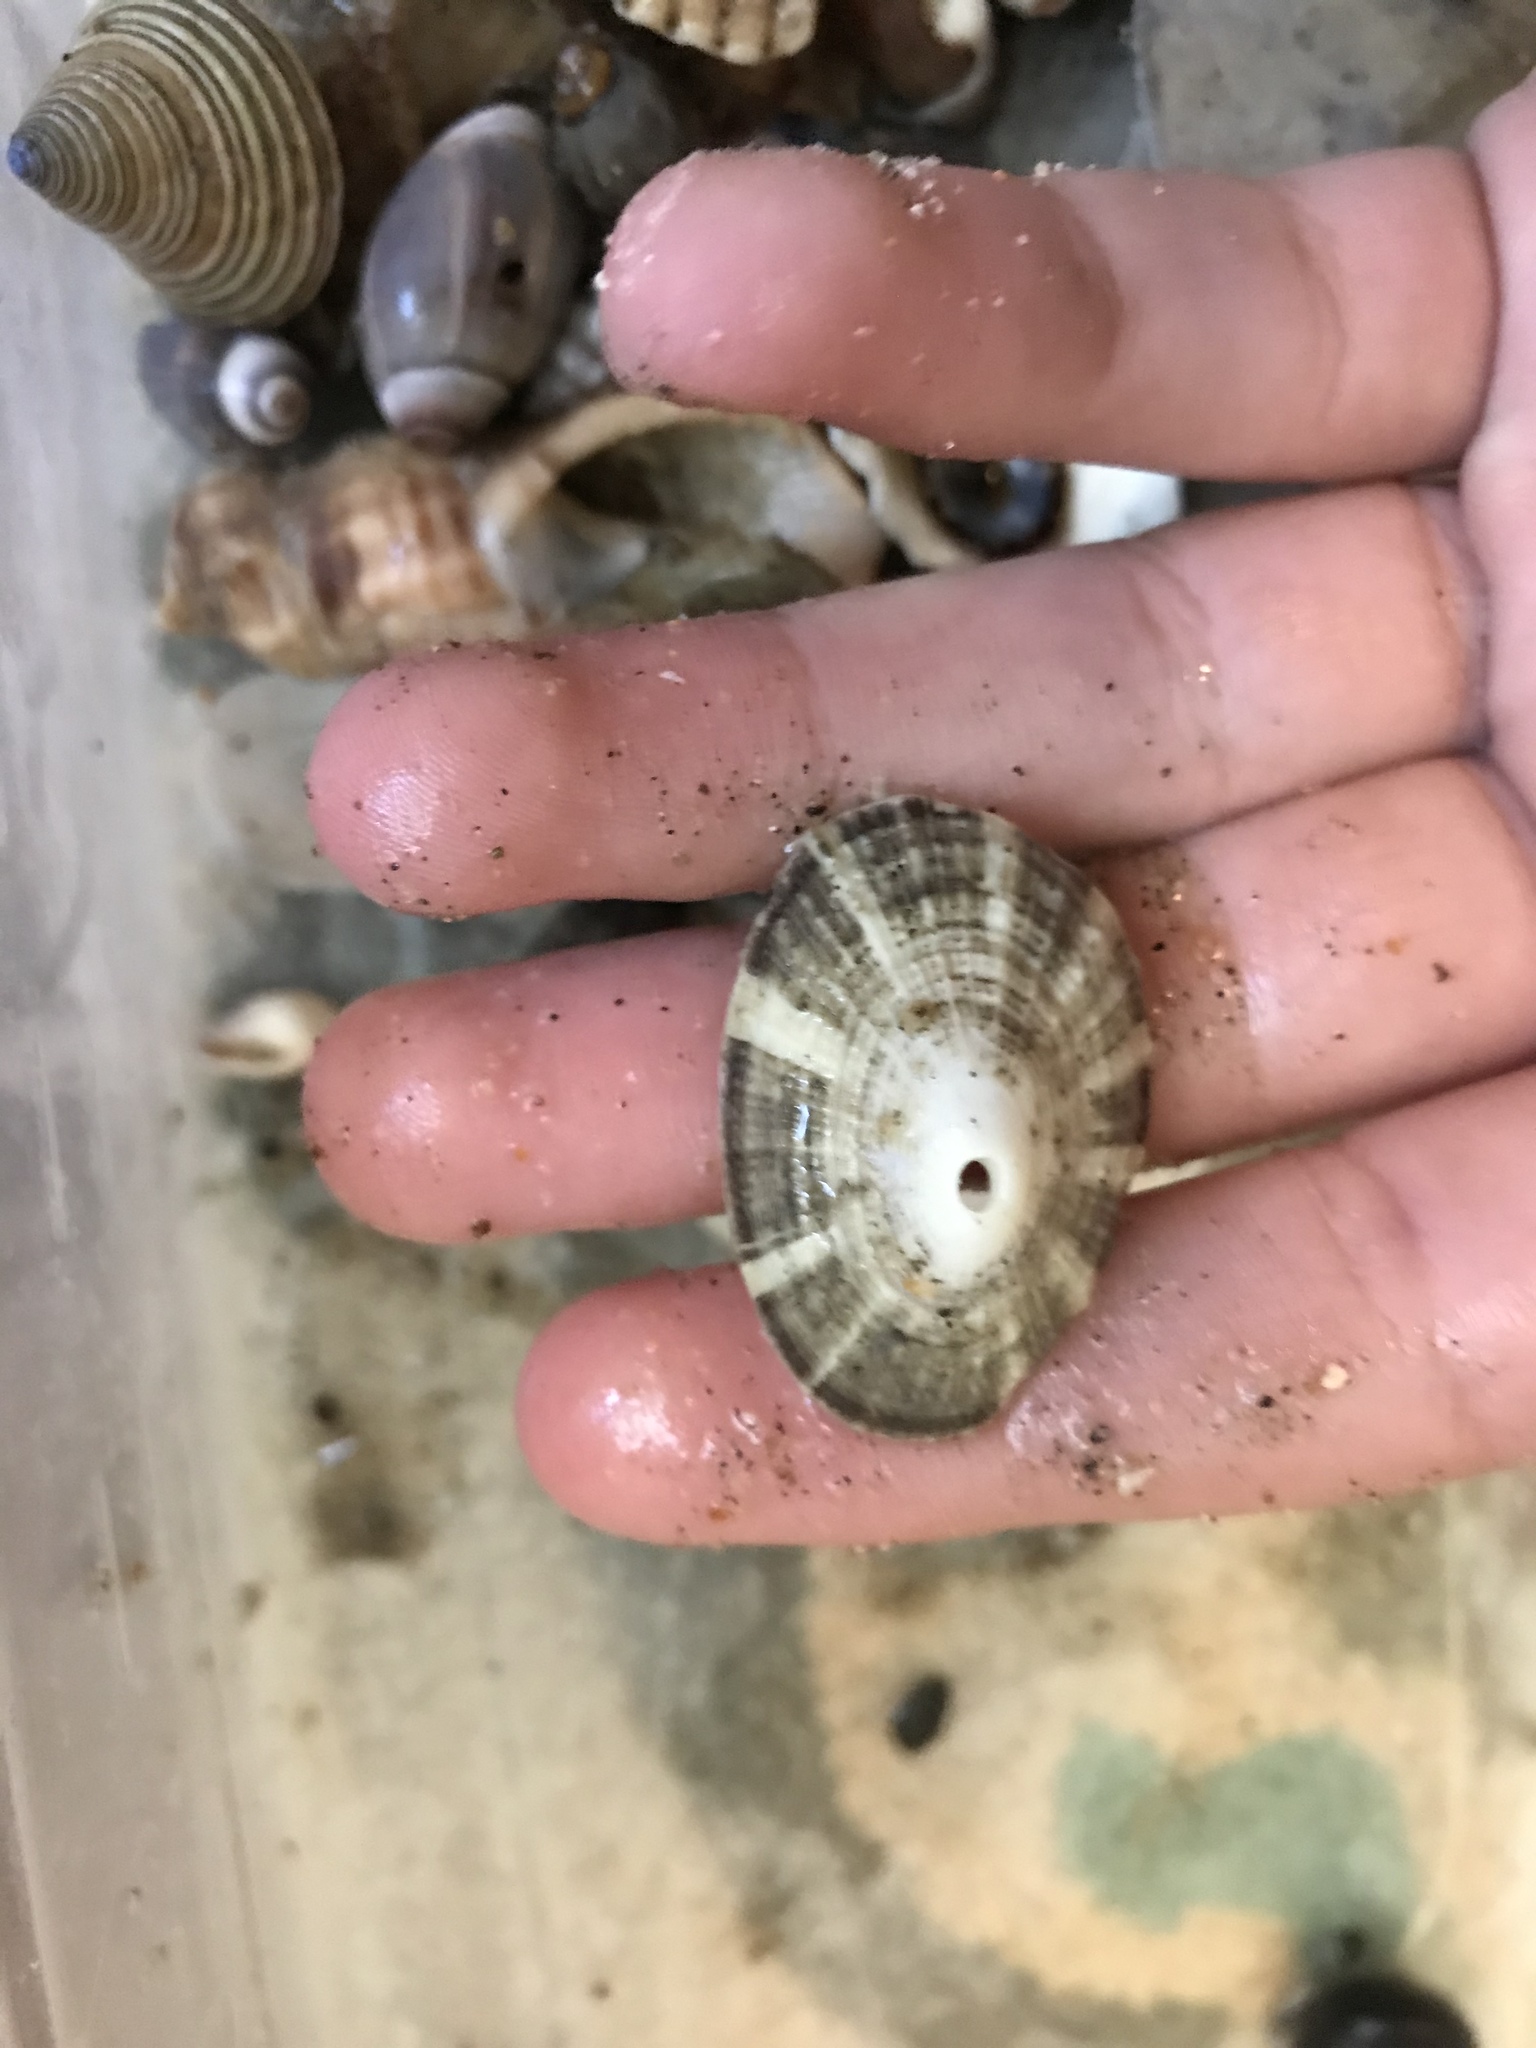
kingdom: Animalia
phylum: Mollusca
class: Gastropoda
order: Lepetellida
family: Fissurellidae
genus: Diodora
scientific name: Diodora aspera
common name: Rough keyhole limpet
